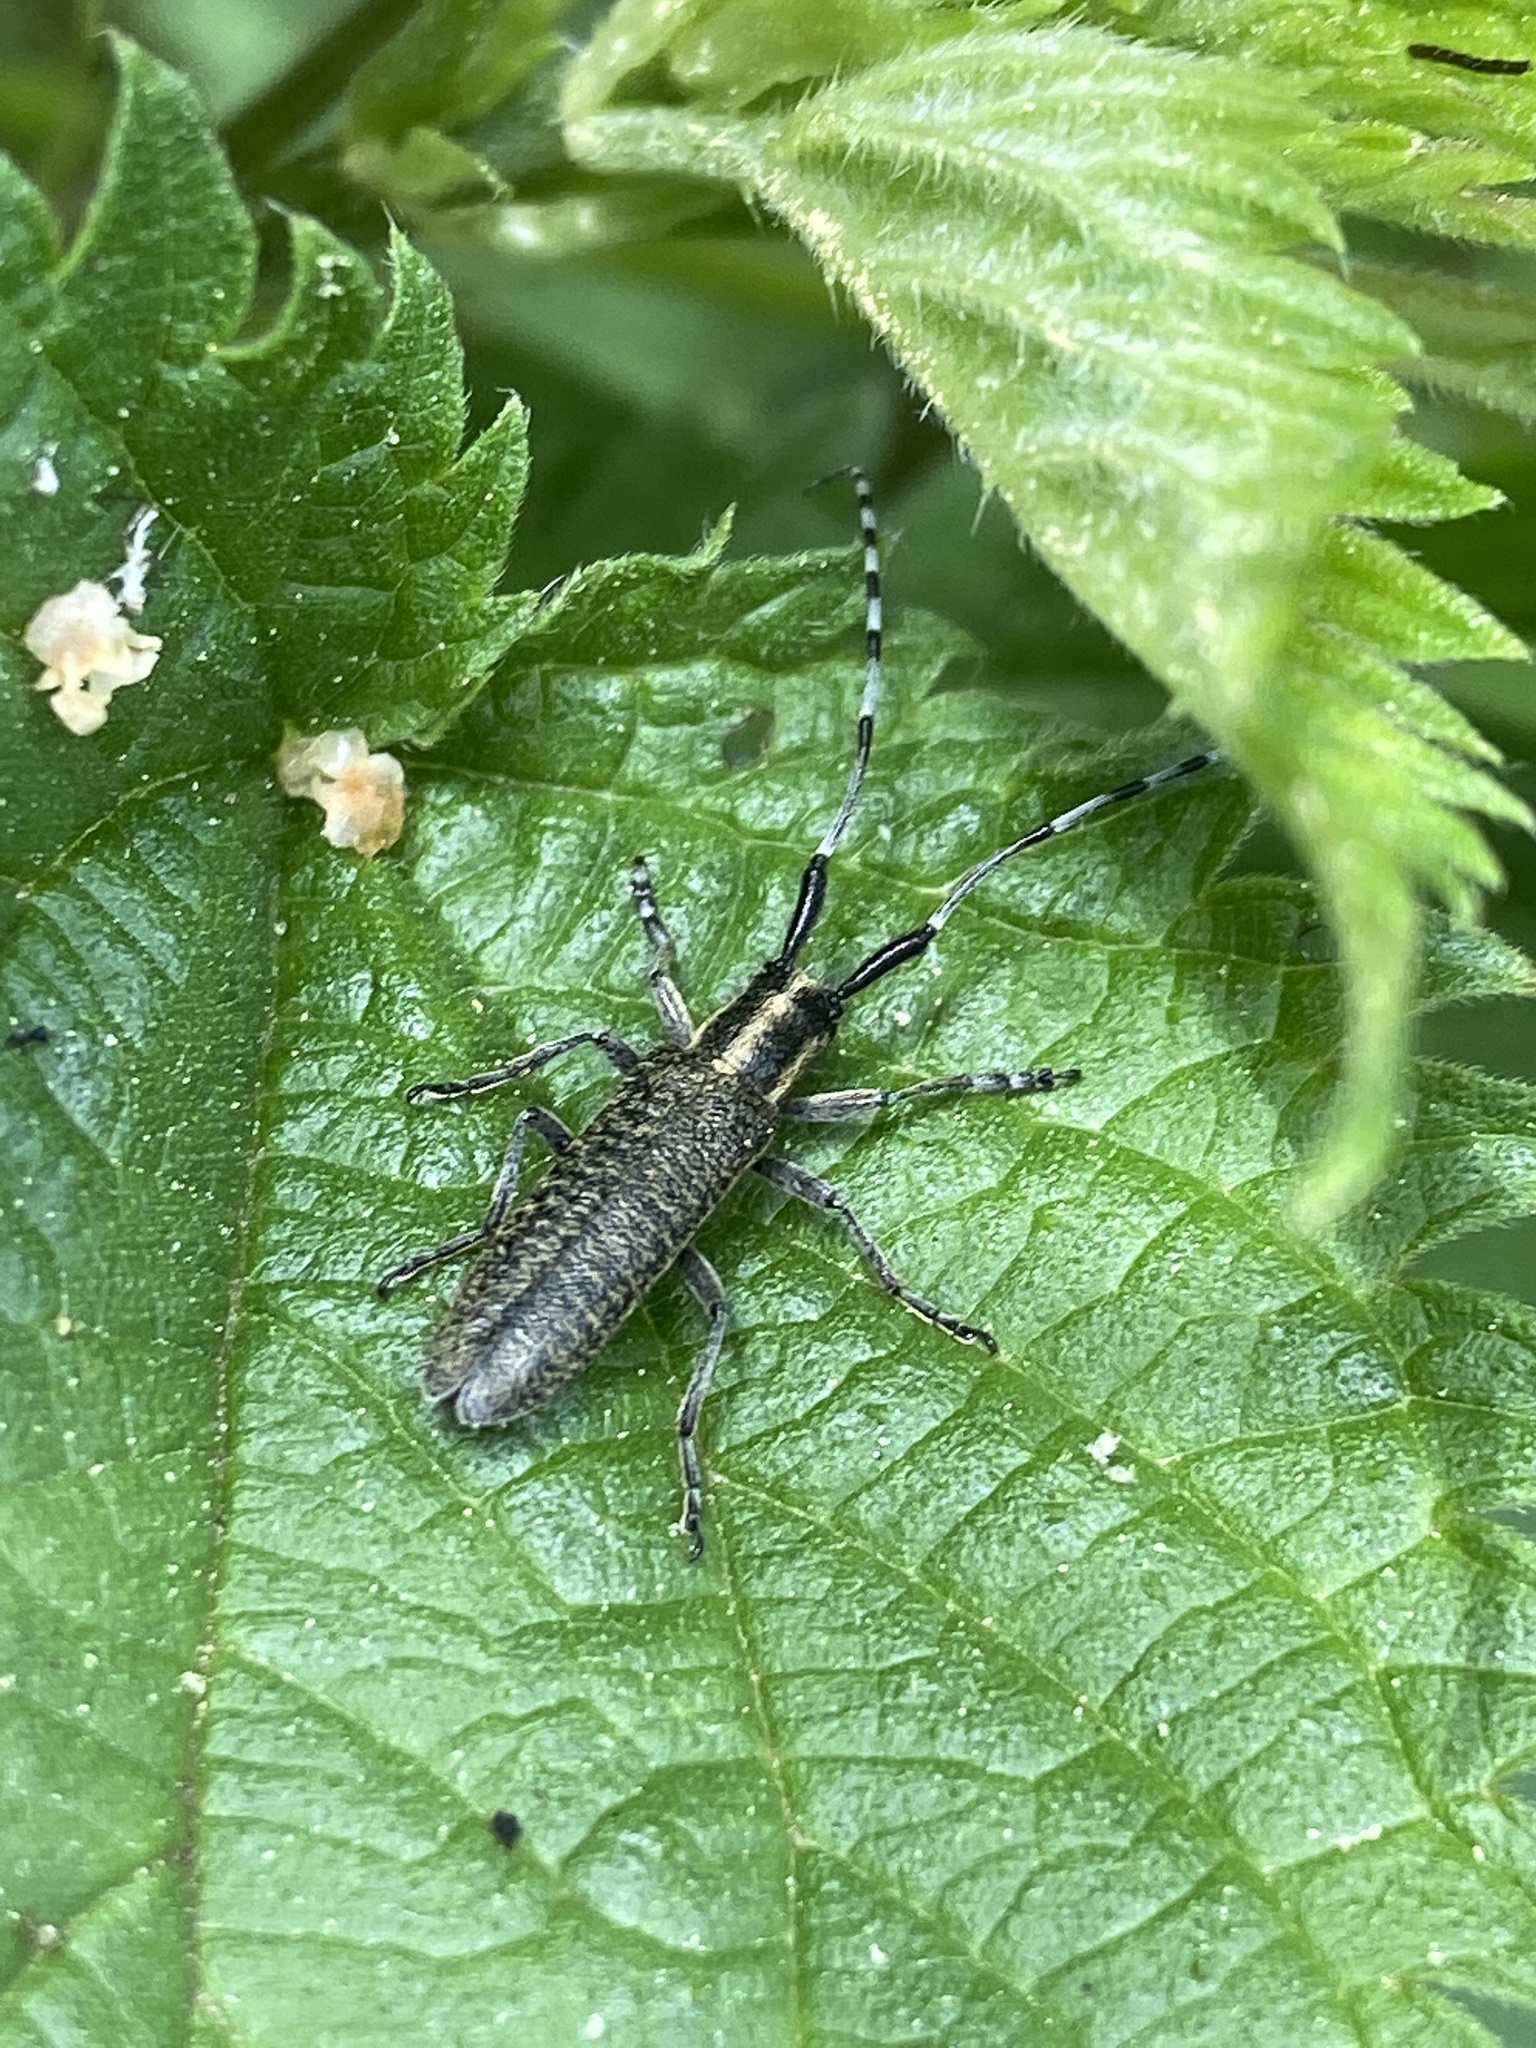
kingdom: Animalia
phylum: Arthropoda
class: Insecta
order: Coleoptera
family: Cerambycidae
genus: Agapanthia
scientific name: Agapanthia villosoviridescens
